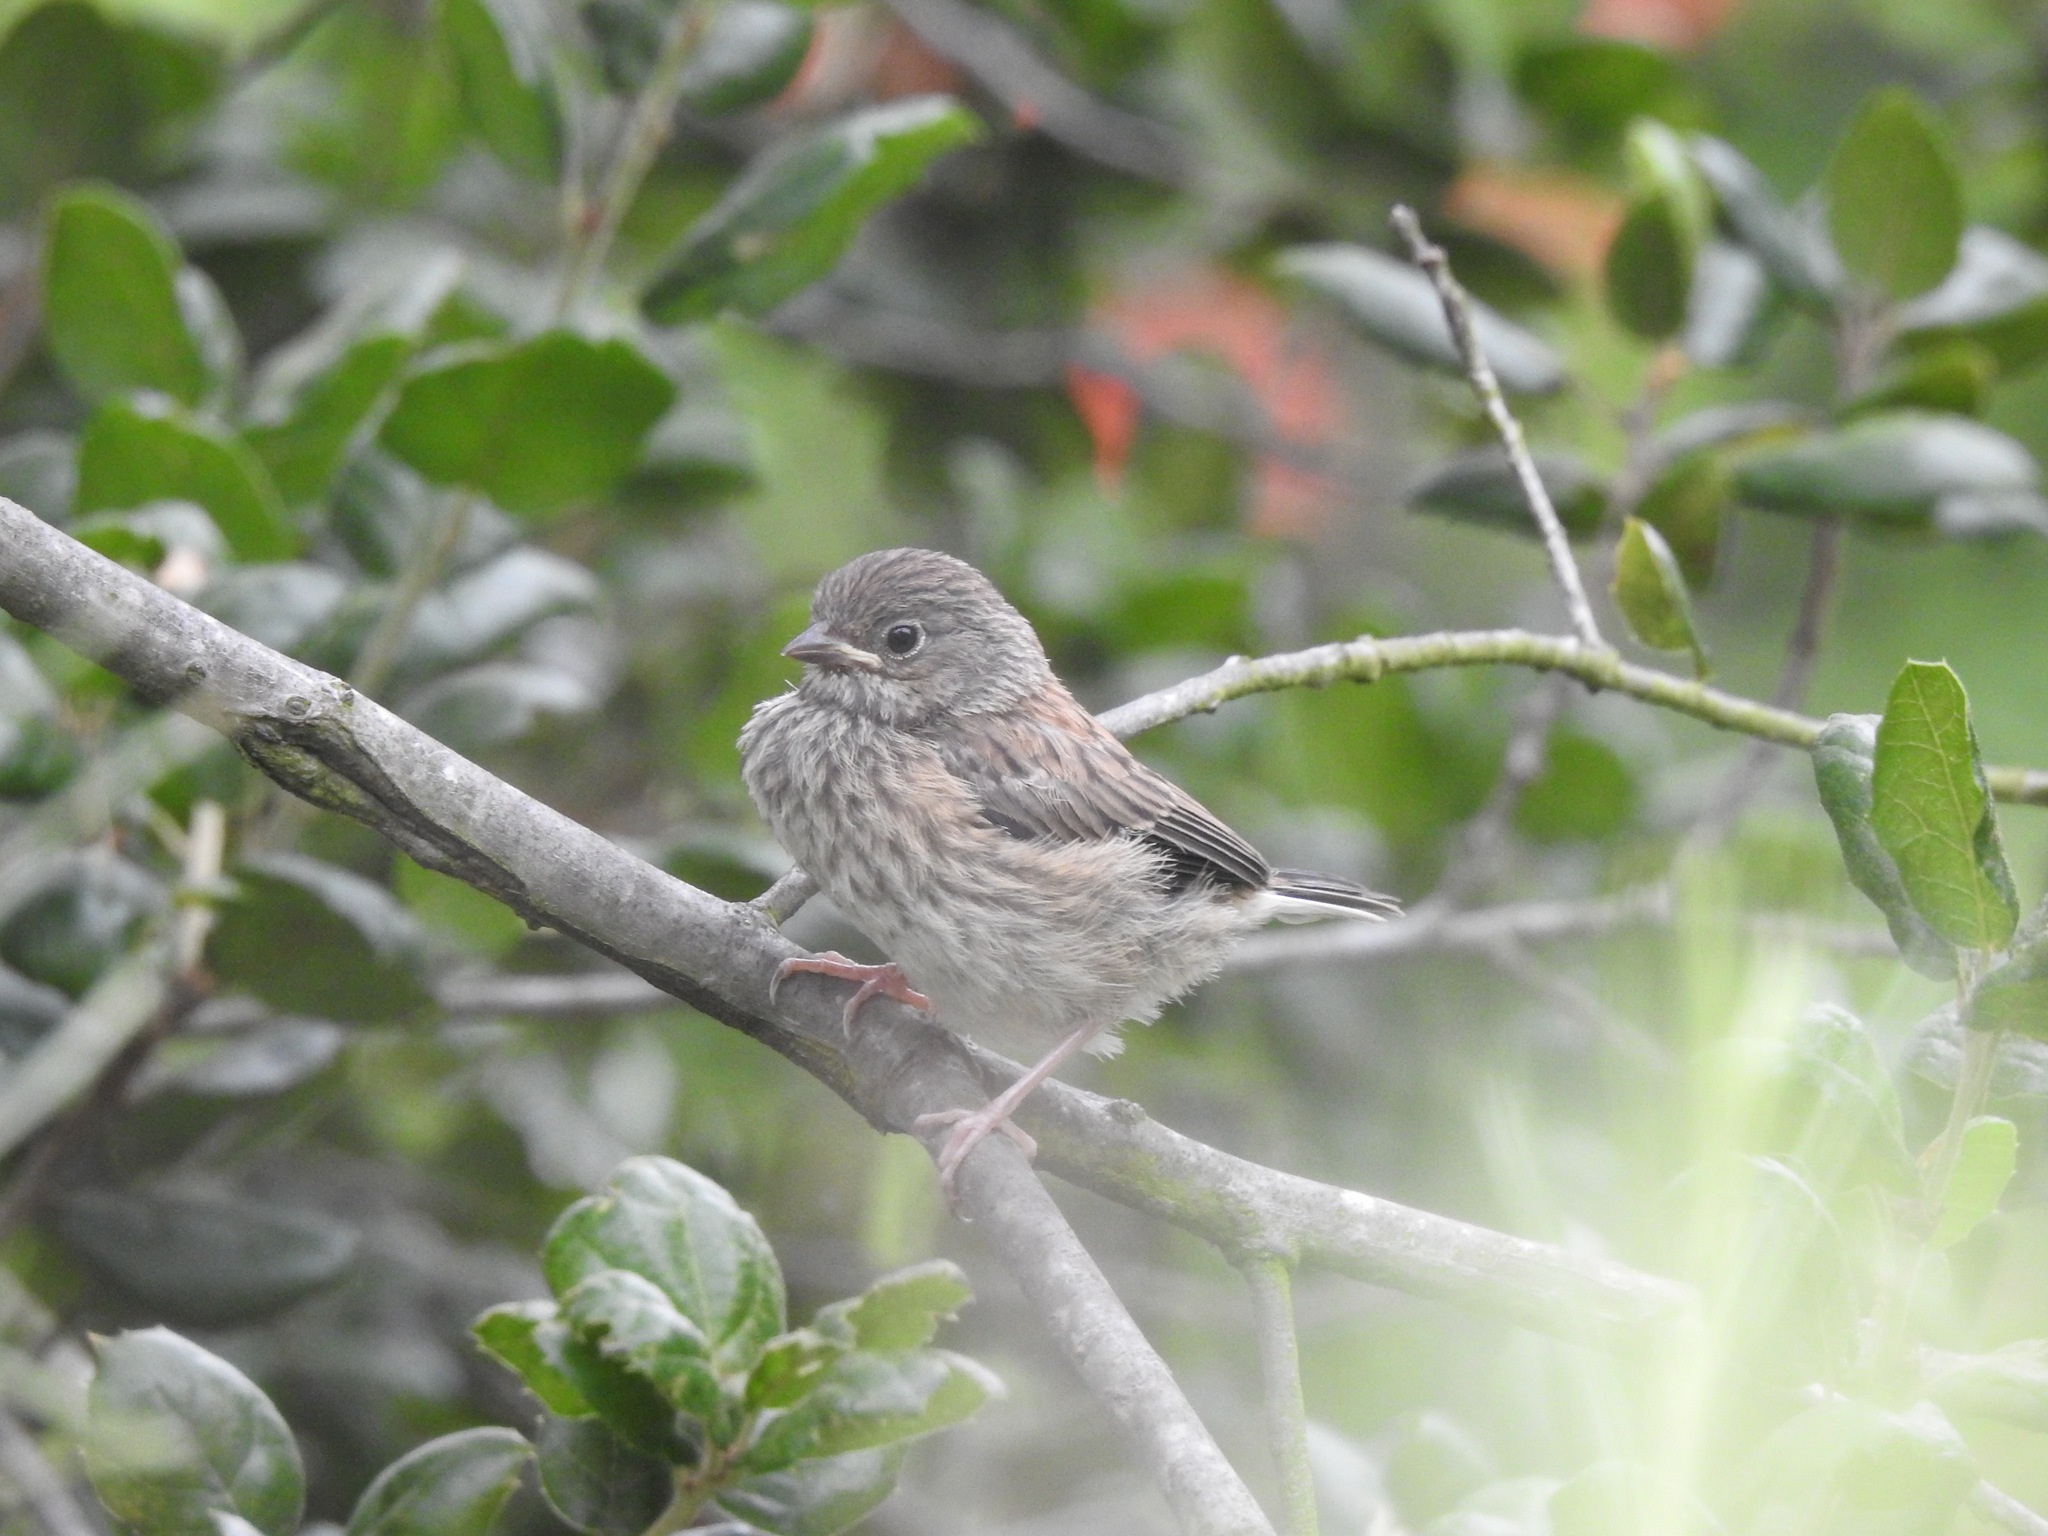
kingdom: Animalia
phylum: Chordata
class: Aves
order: Passeriformes
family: Passerellidae
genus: Junco
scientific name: Junco hyemalis
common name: Dark-eyed junco
